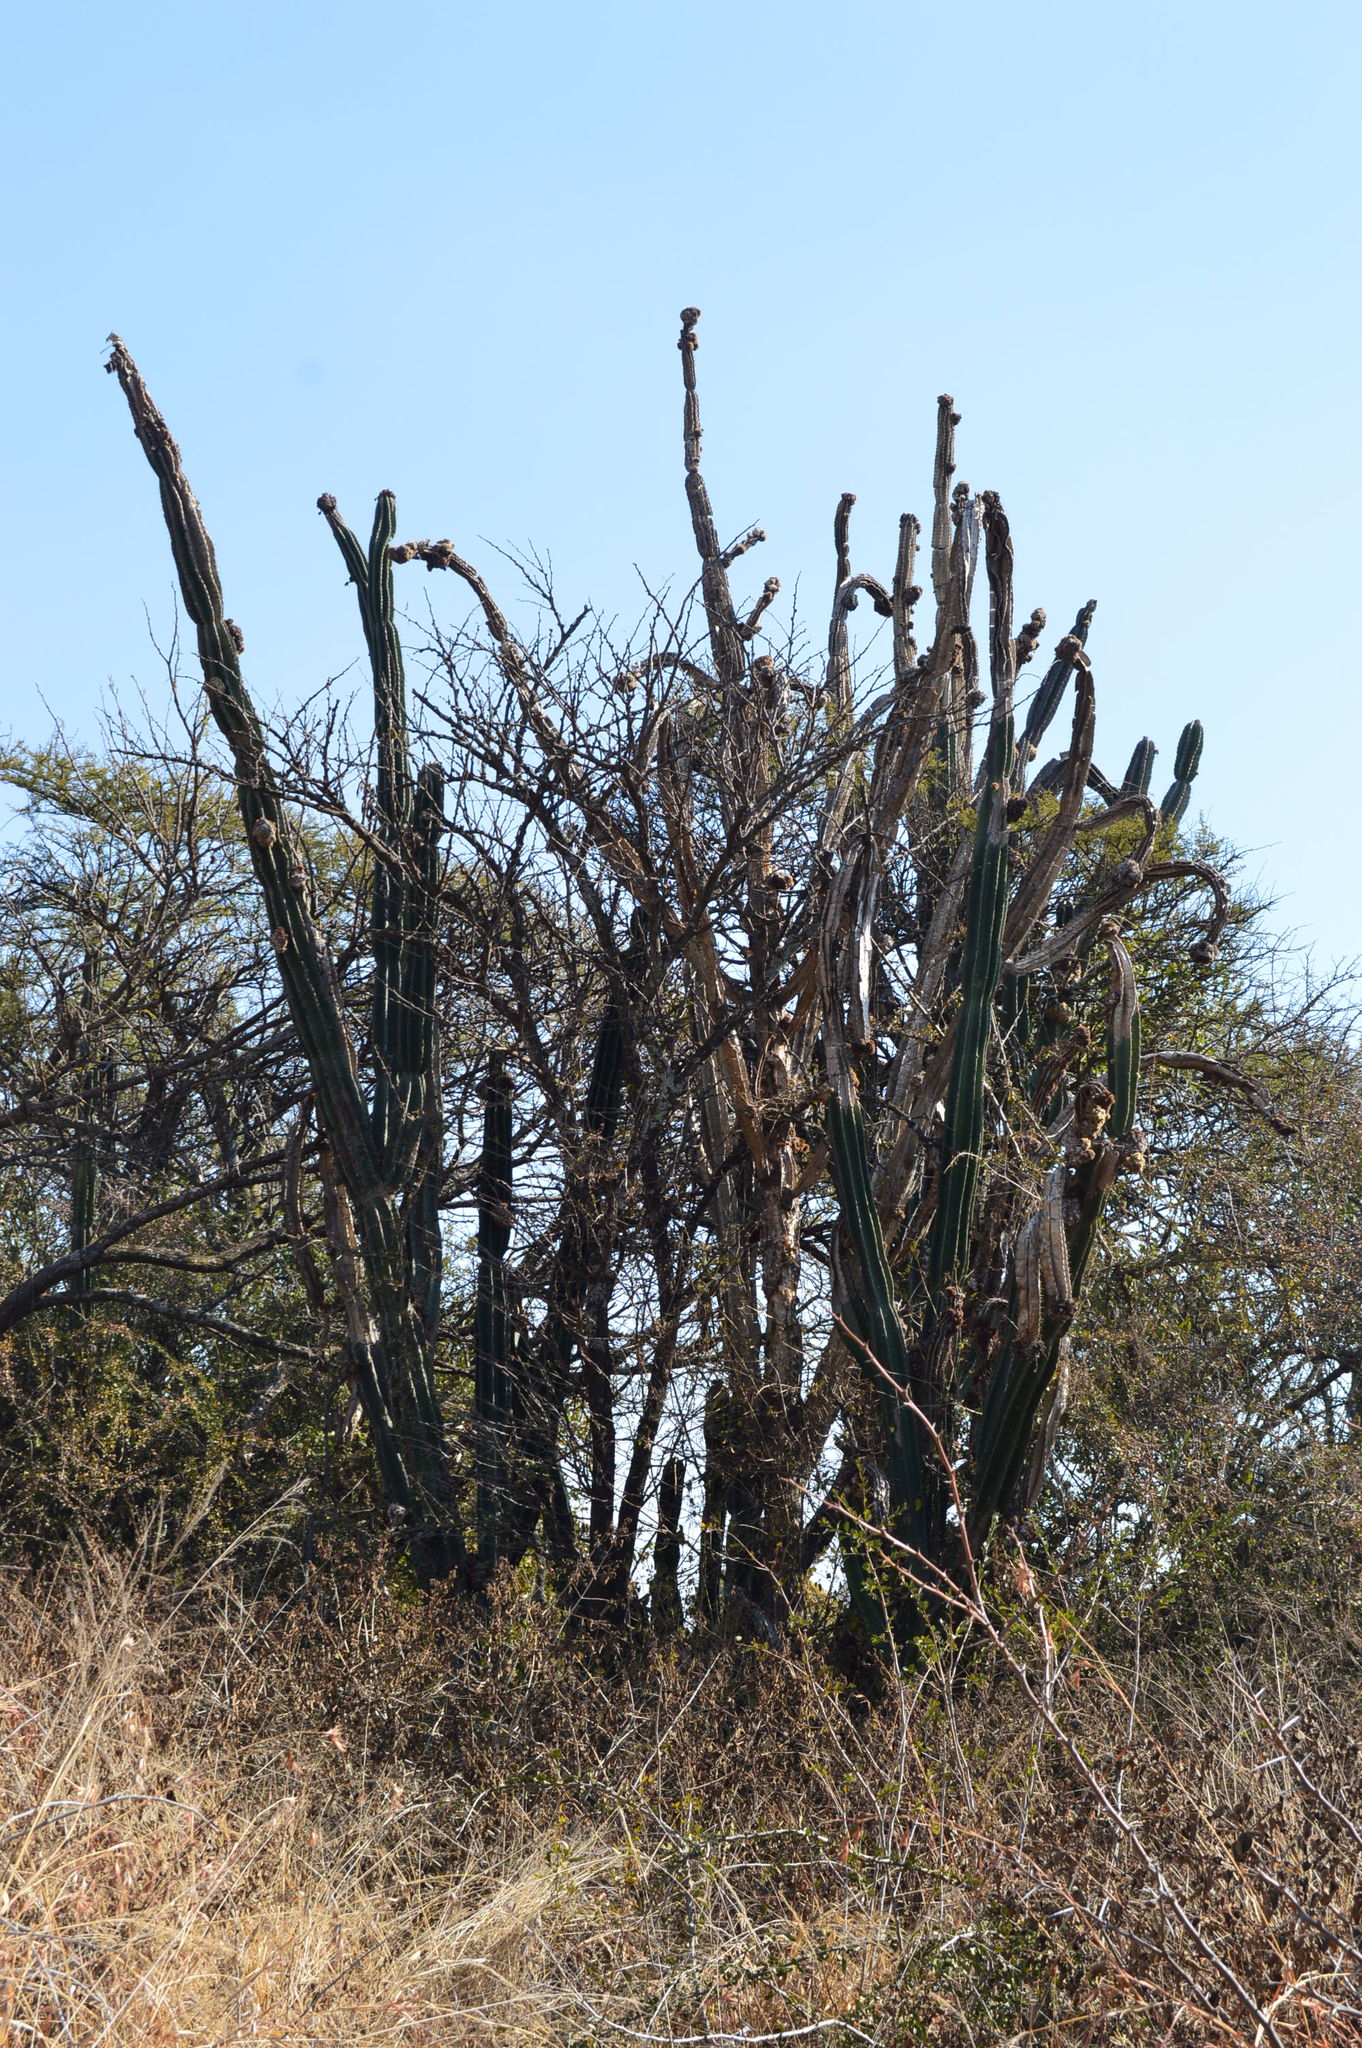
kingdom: Plantae
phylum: Tracheophyta
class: Magnoliopsida
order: Caryophyllales
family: Cactaceae
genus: Cereus
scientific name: Cereus jamacaru
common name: Queen-of-the-night
